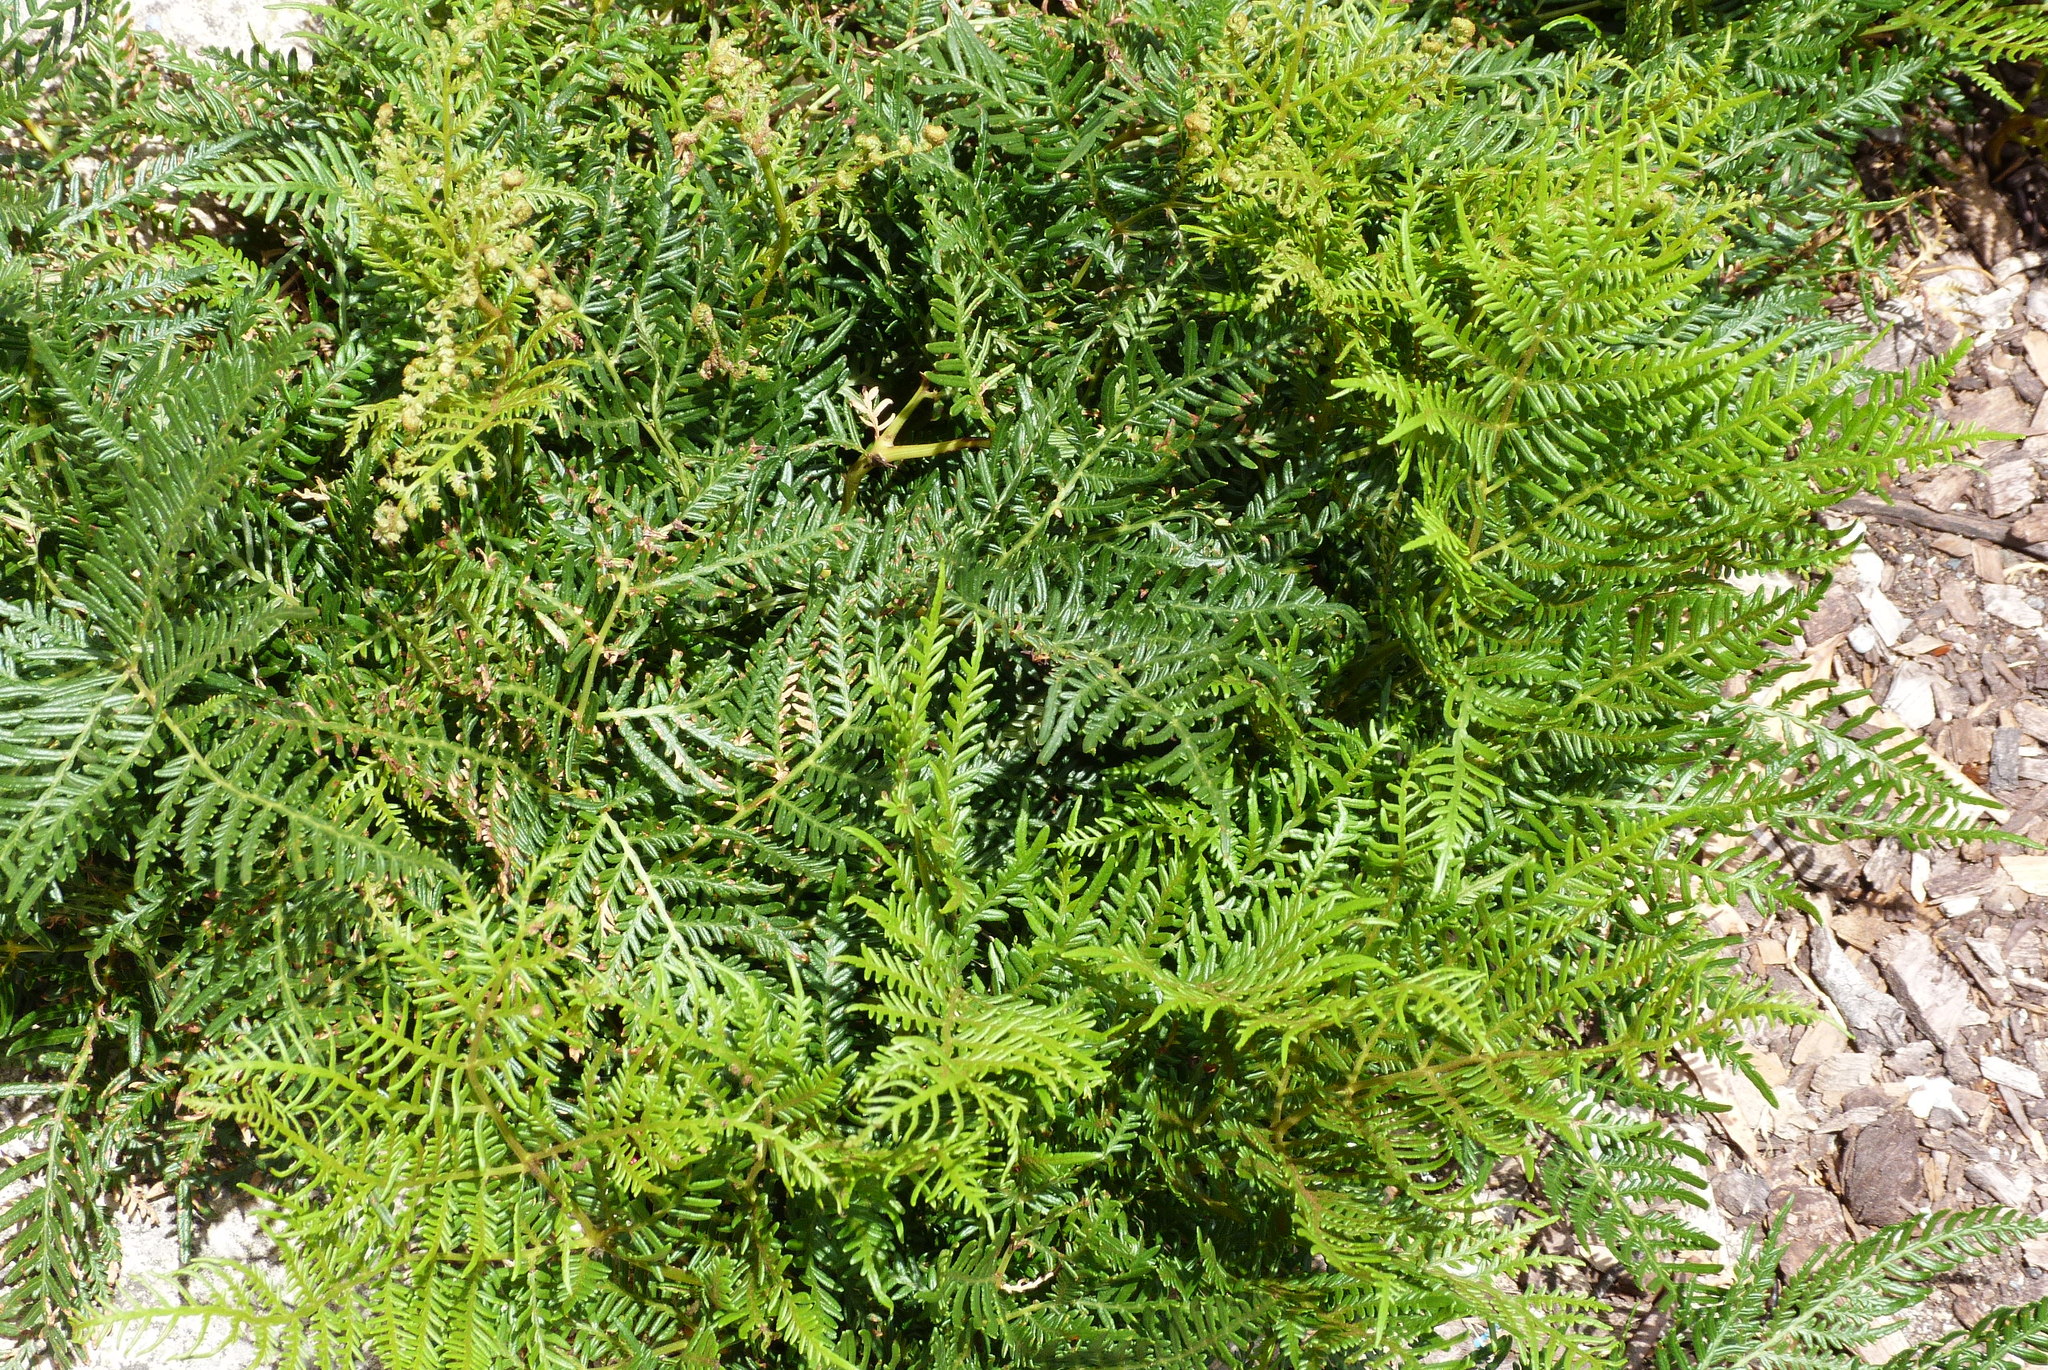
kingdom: Plantae
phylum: Tracheophyta
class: Polypodiopsida
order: Polypodiales
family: Dennstaedtiaceae
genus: Pteridium
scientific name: Pteridium esculentum
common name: Bracken fern
